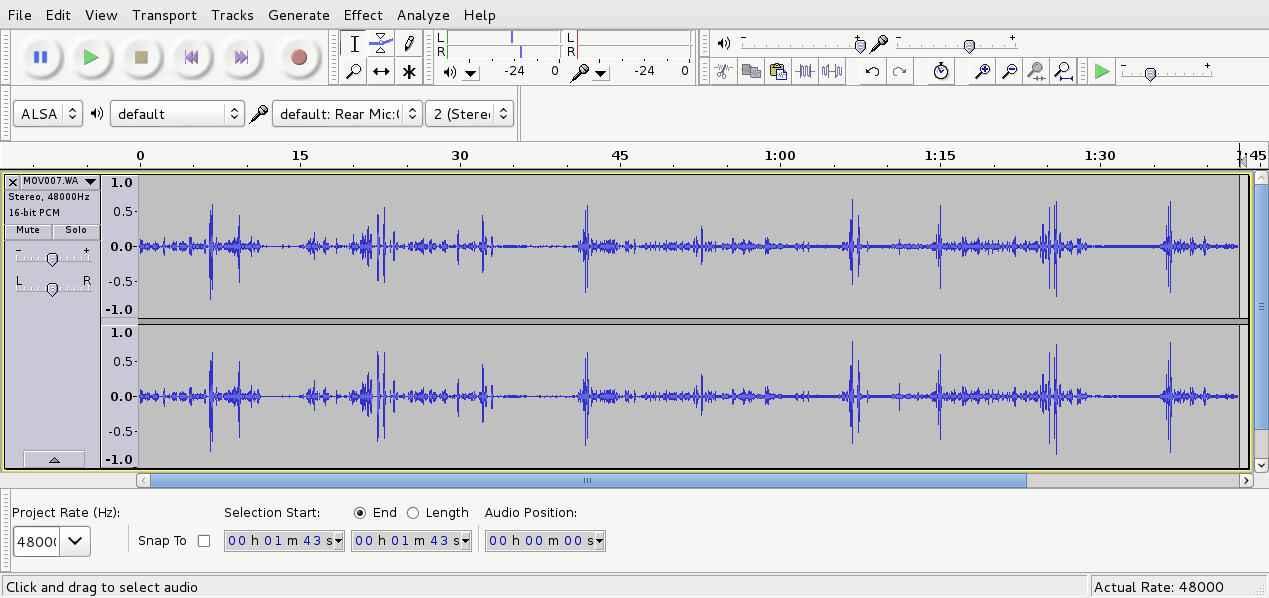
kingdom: Animalia
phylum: Chordata
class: Aves
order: Passeriformes
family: Meliphagidae
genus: Prosthemadera
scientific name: Prosthemadera novaeseelandiae
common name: Tui
